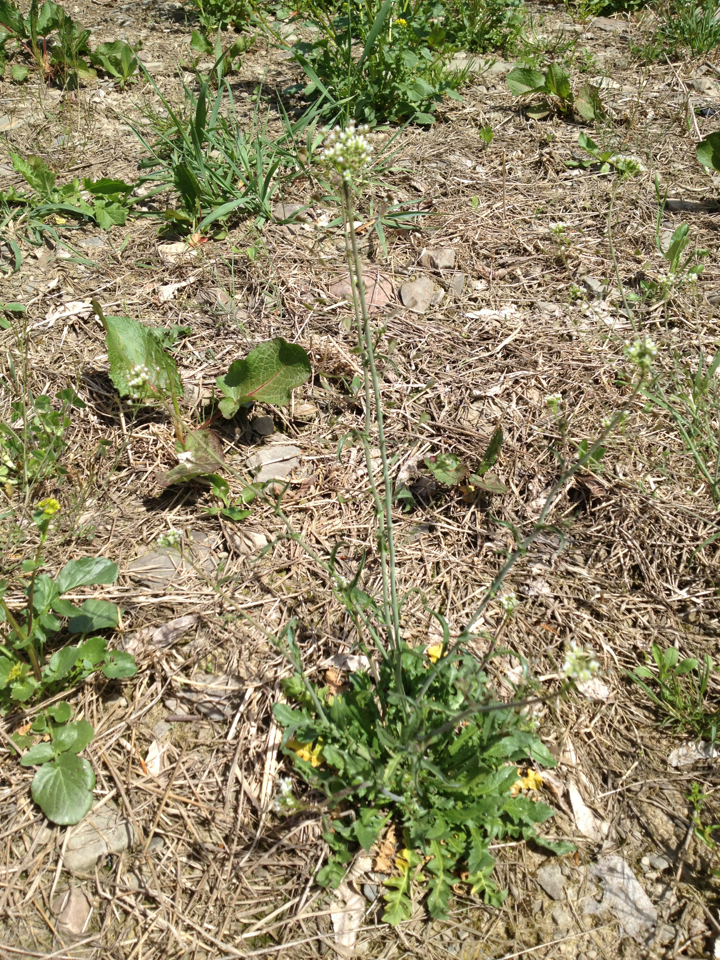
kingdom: Plantae
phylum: Tracheophyta
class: Magnoliopsida
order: Brassicales
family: Brassicaceae
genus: Capsella
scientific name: Capsella bursa-pastoris
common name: Shepherd's purse
